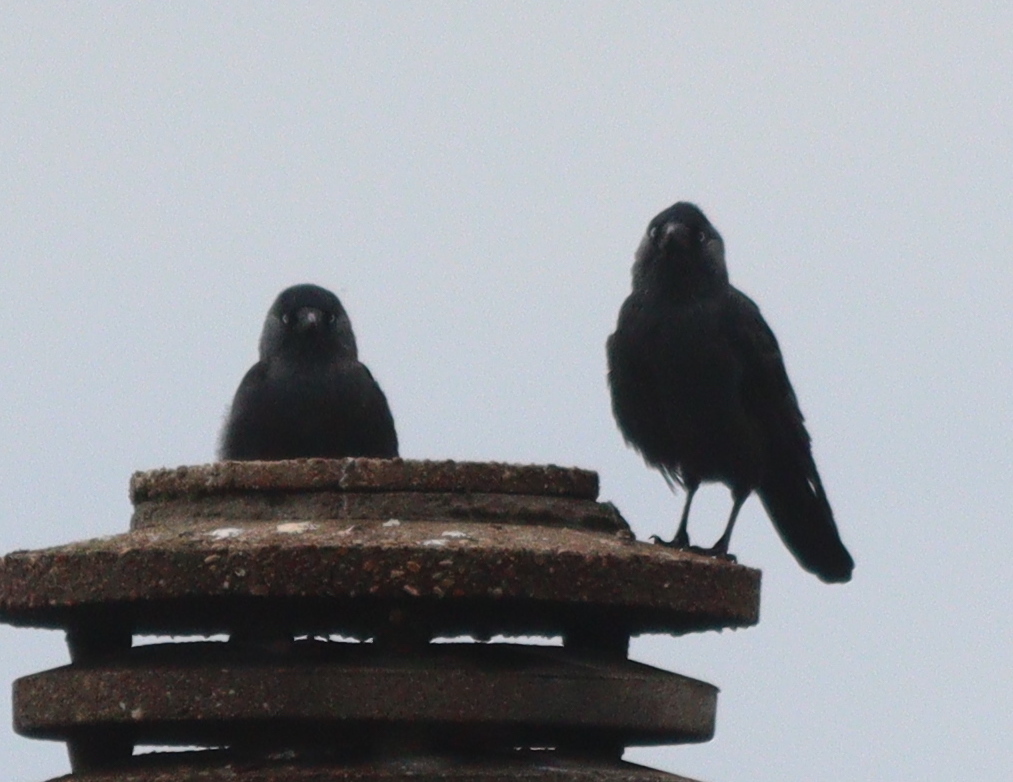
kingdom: Animalia
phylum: Chordata
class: Aves
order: Passeriformes
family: Corvidae
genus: Coloeus
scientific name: Coloeus monedula
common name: Western jackdaw
